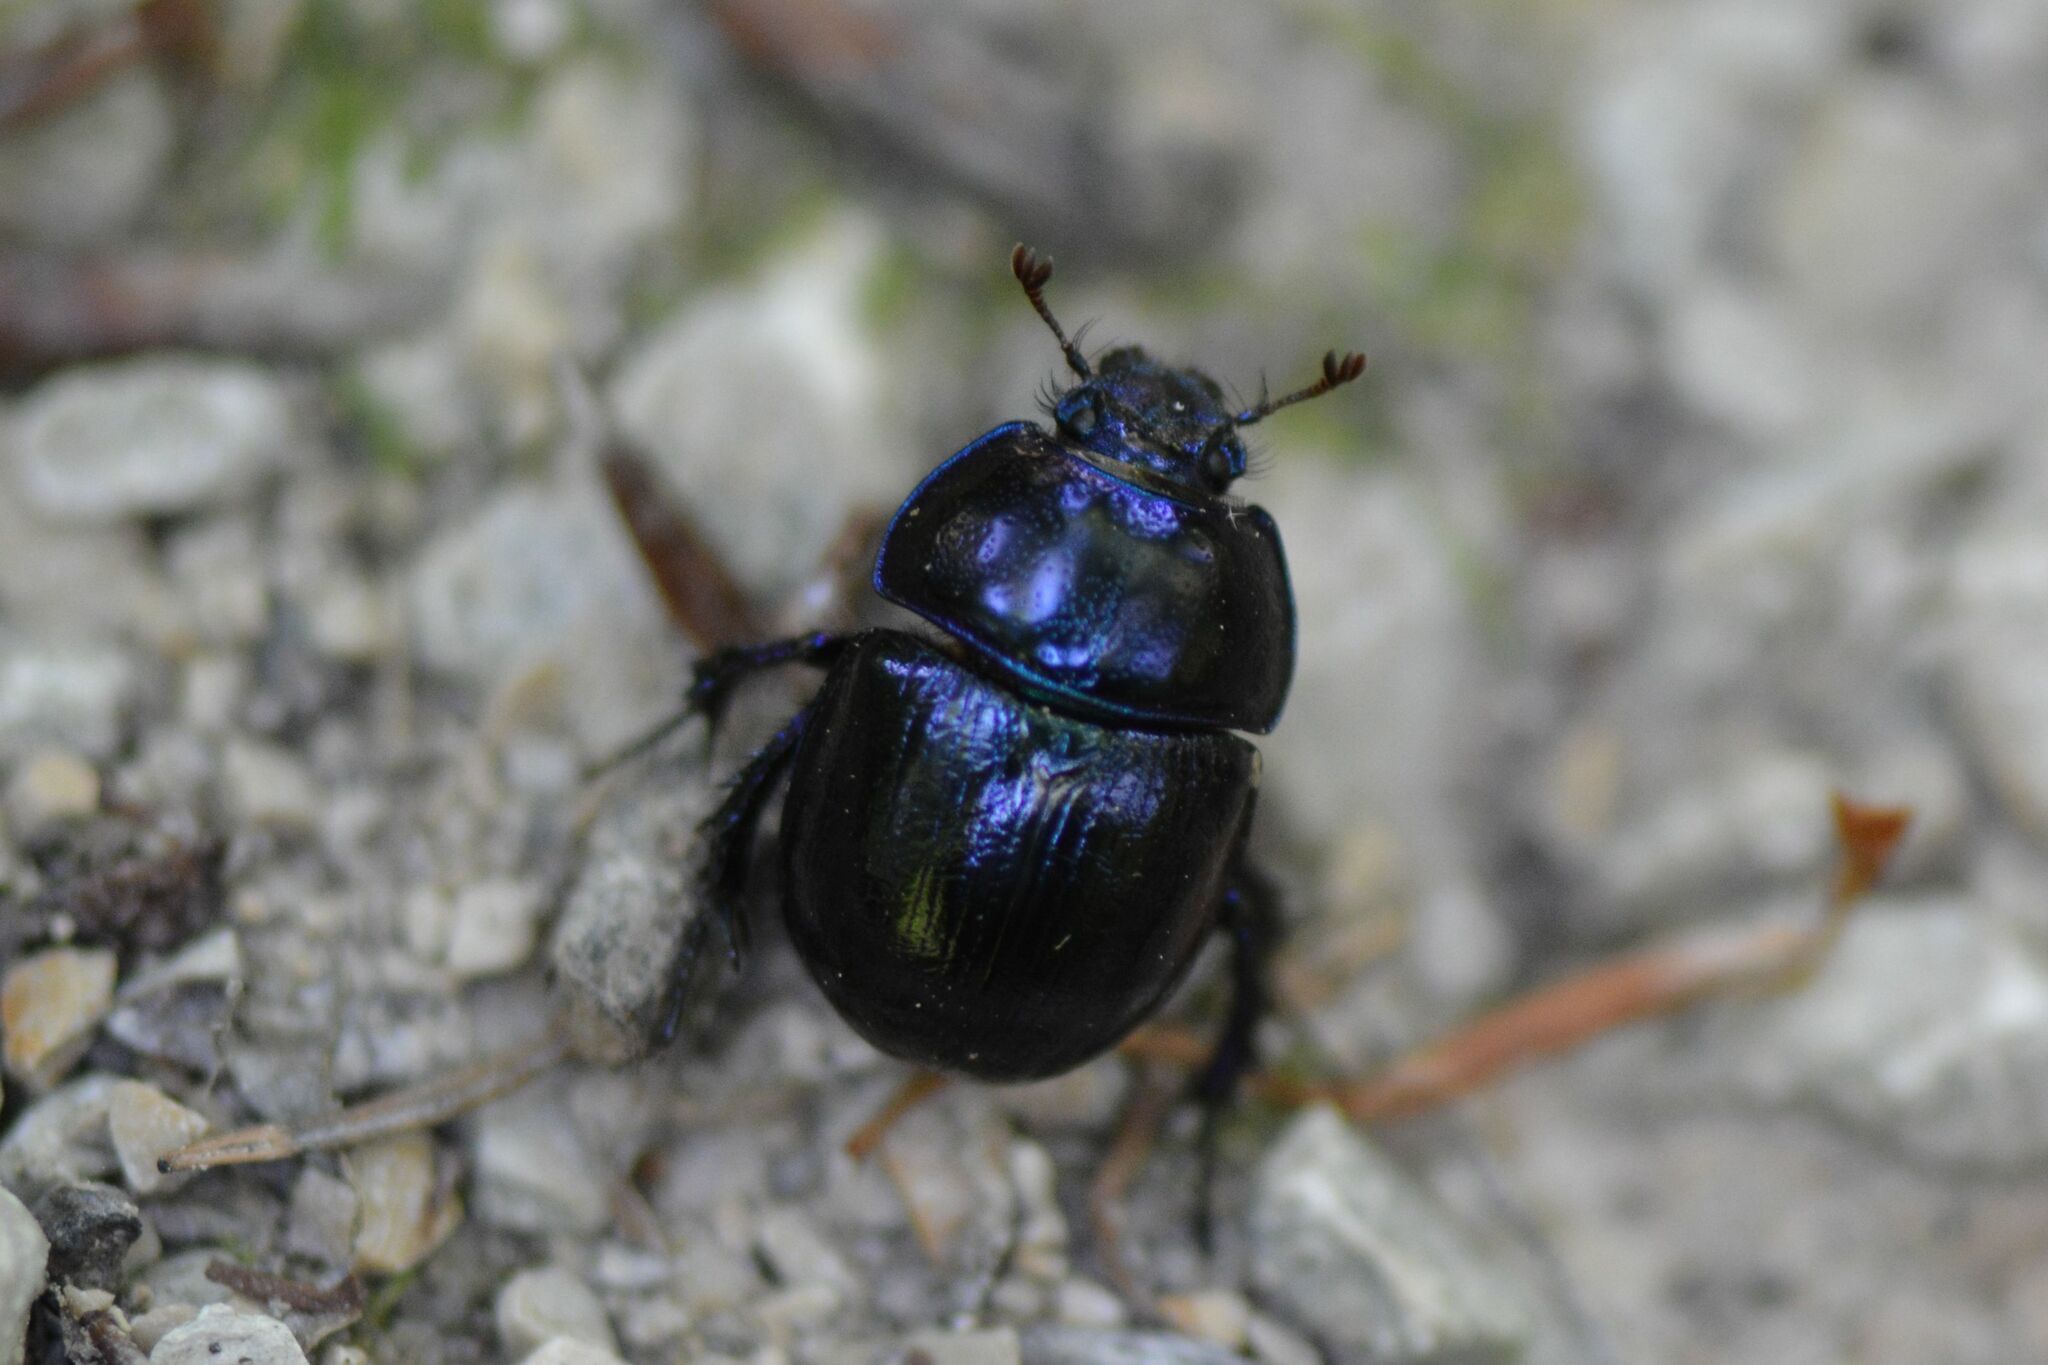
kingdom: Animalia
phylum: Arthropoda
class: Insecta
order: Coleoptera
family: Geotrupidae
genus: Anoplotrupes
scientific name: Anoplotrupes stercorosus
